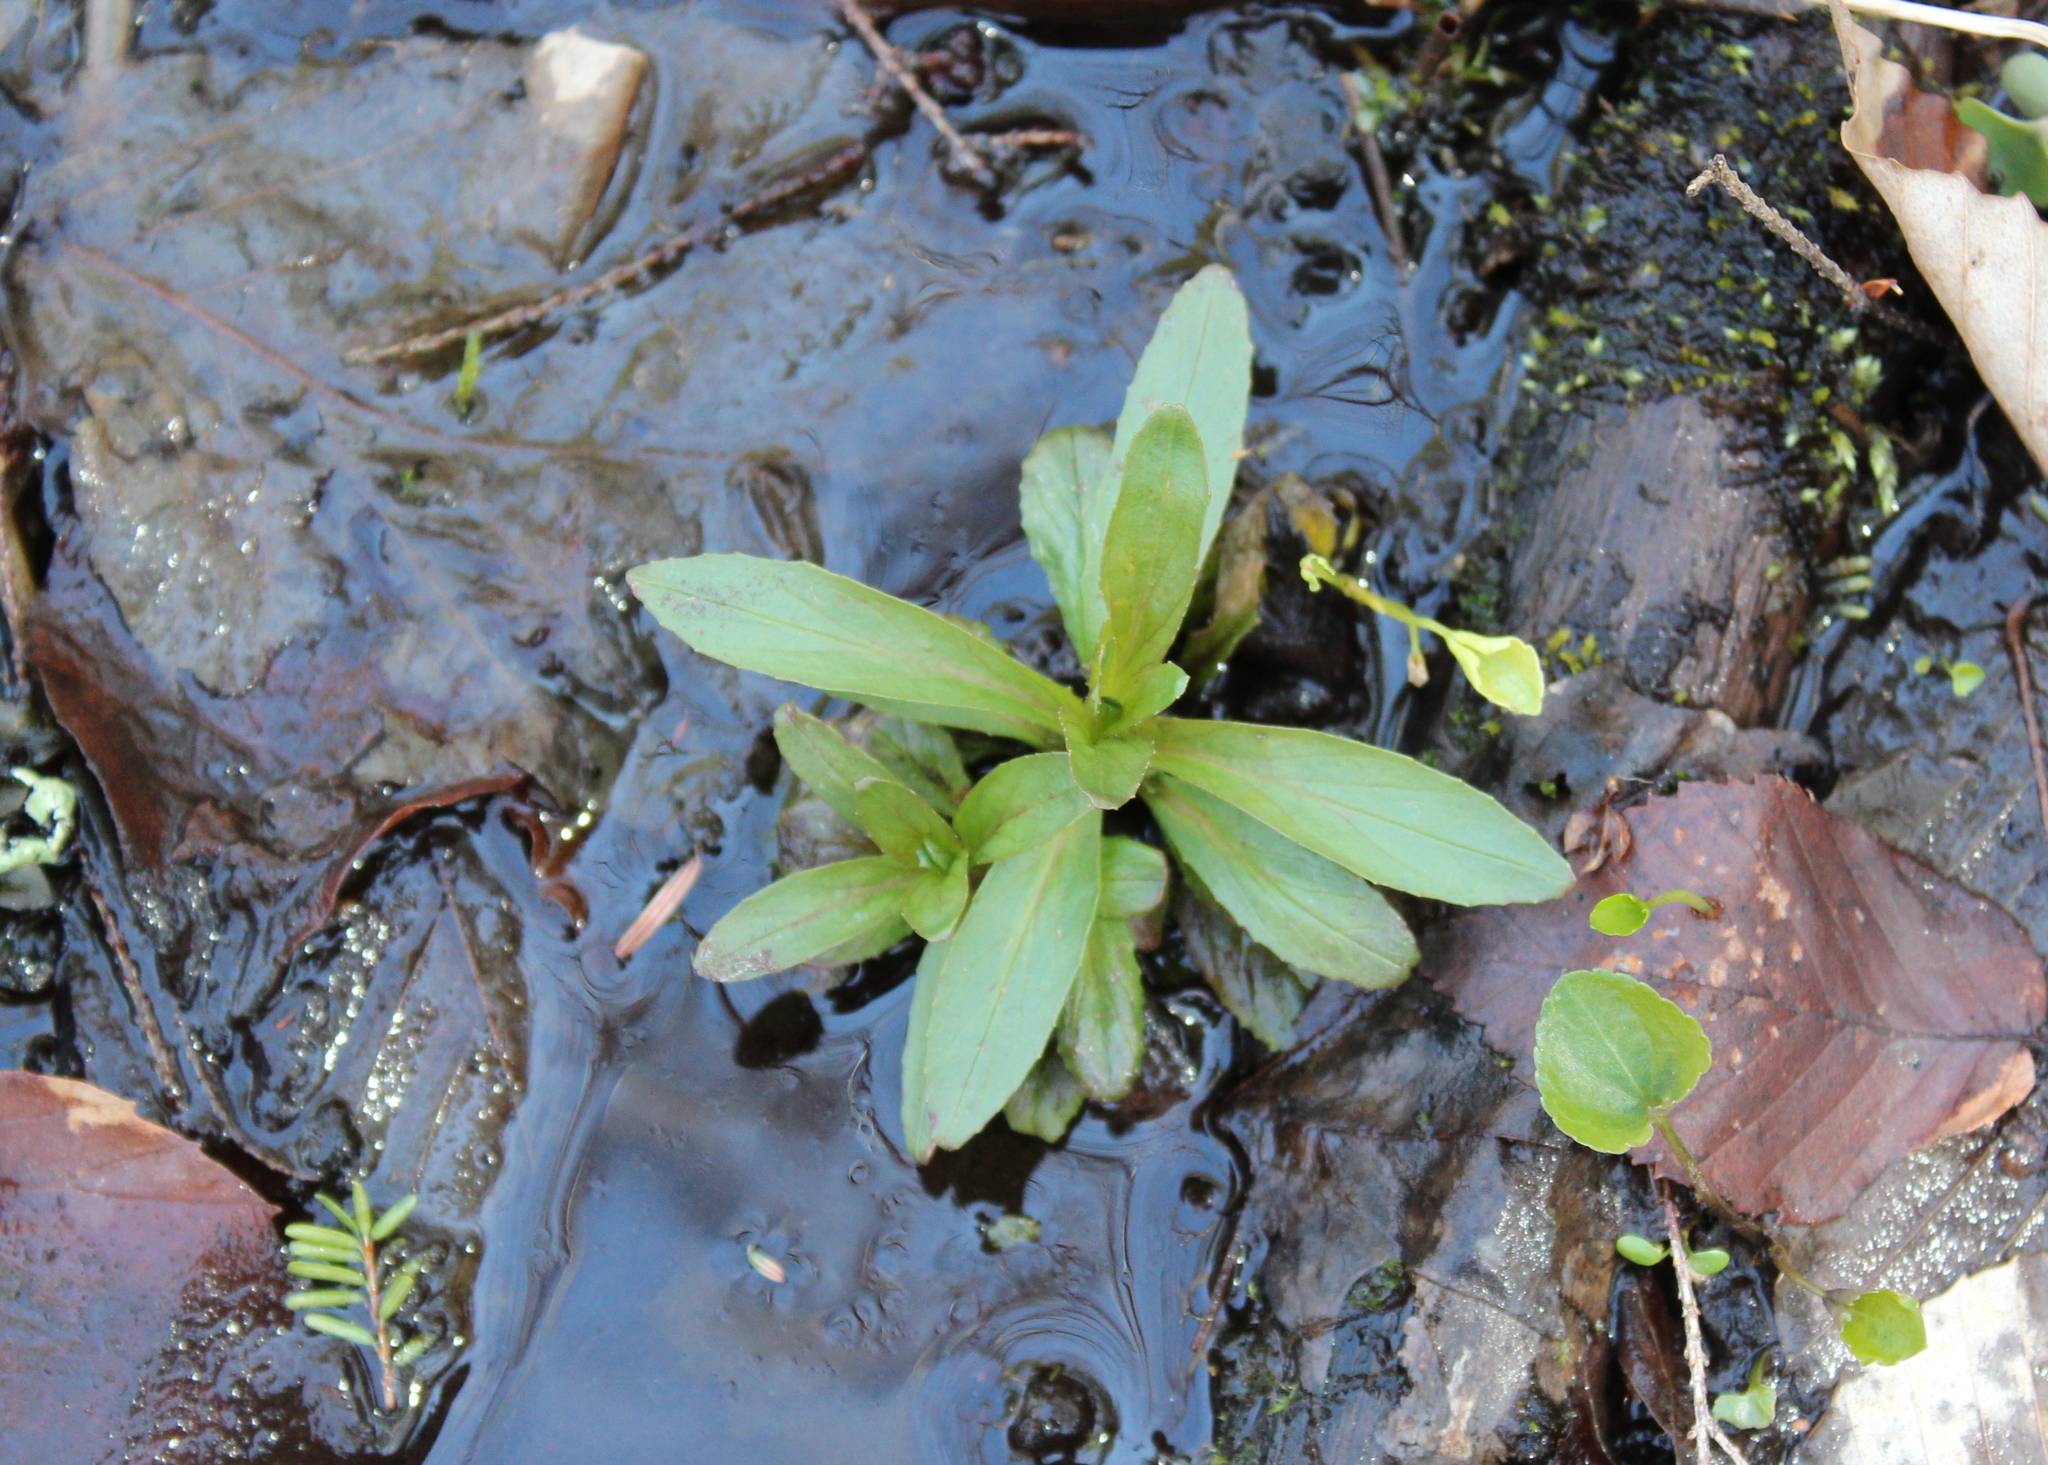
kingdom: Plantae
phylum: Tracheophyta
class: Magnoliopsida
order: Saxifragales
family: Saxifragaceae
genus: Micranthes
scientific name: Micranthes pensylvanica
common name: Marsh saxifrage
